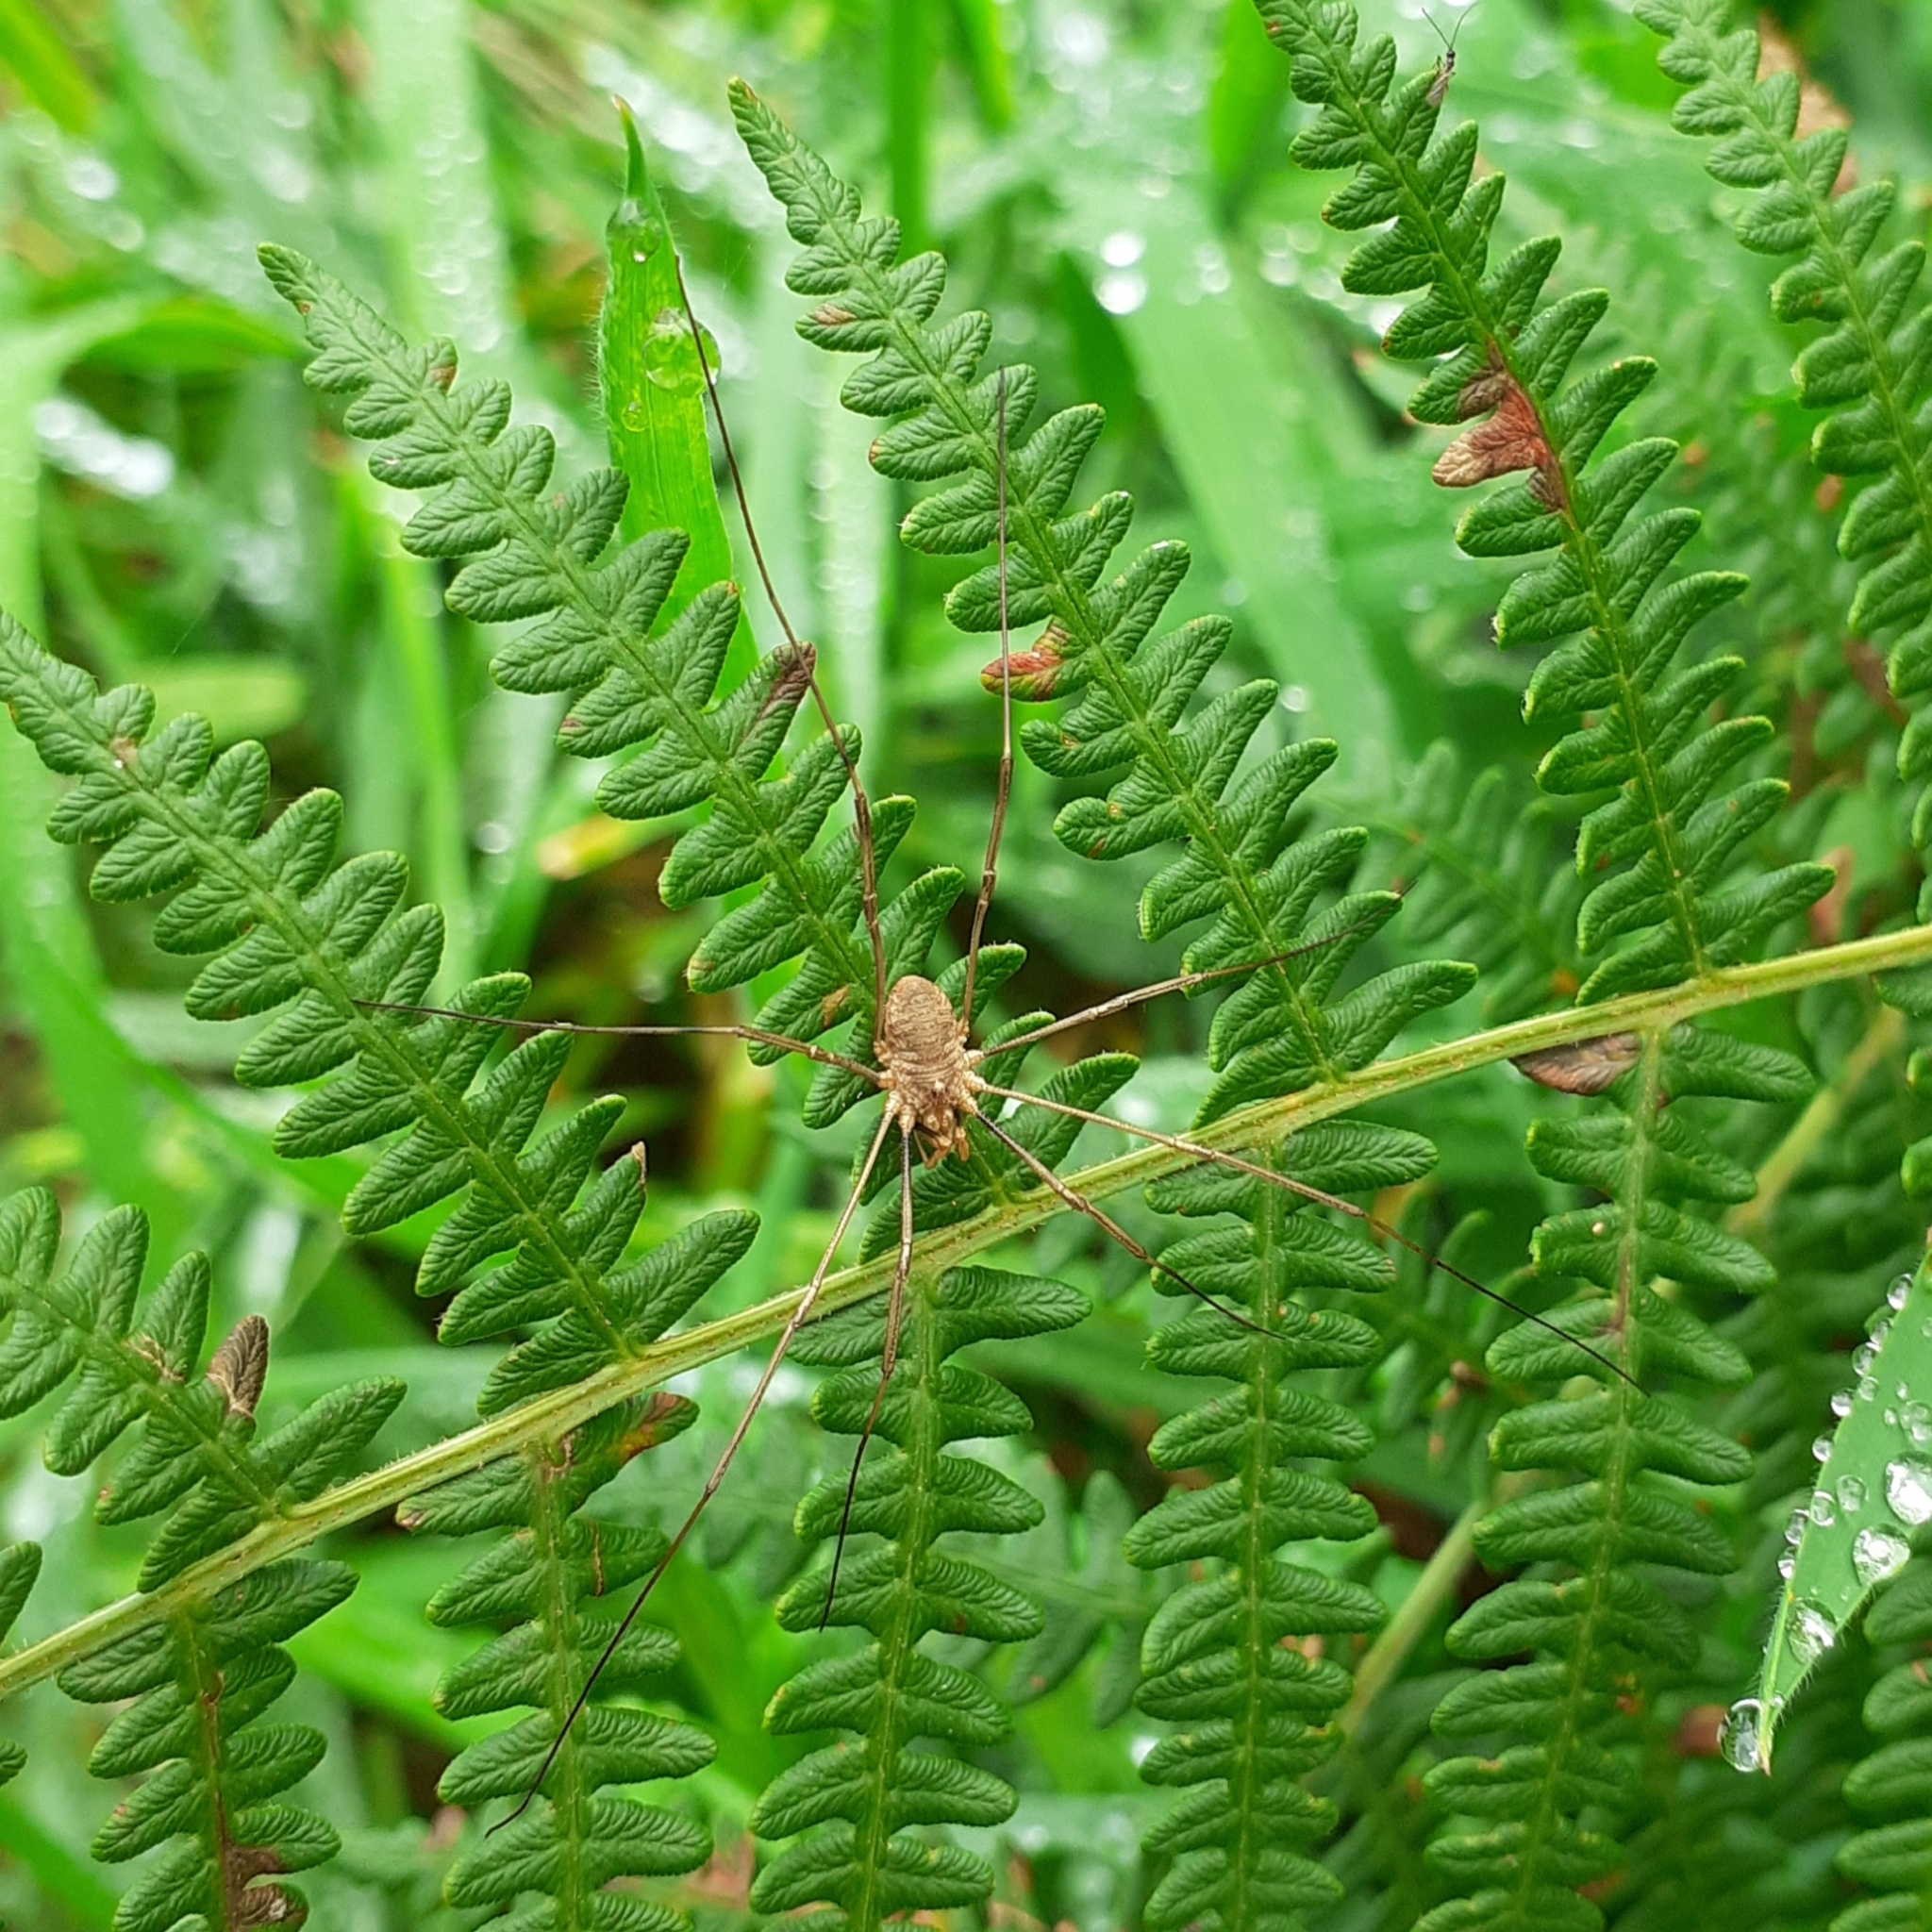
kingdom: Animalia
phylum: Arthropoda
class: Arachnida
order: Opiliones
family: Phalangiidae
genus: Phalangium
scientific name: Phalangium opilio
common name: Daddy longleg
